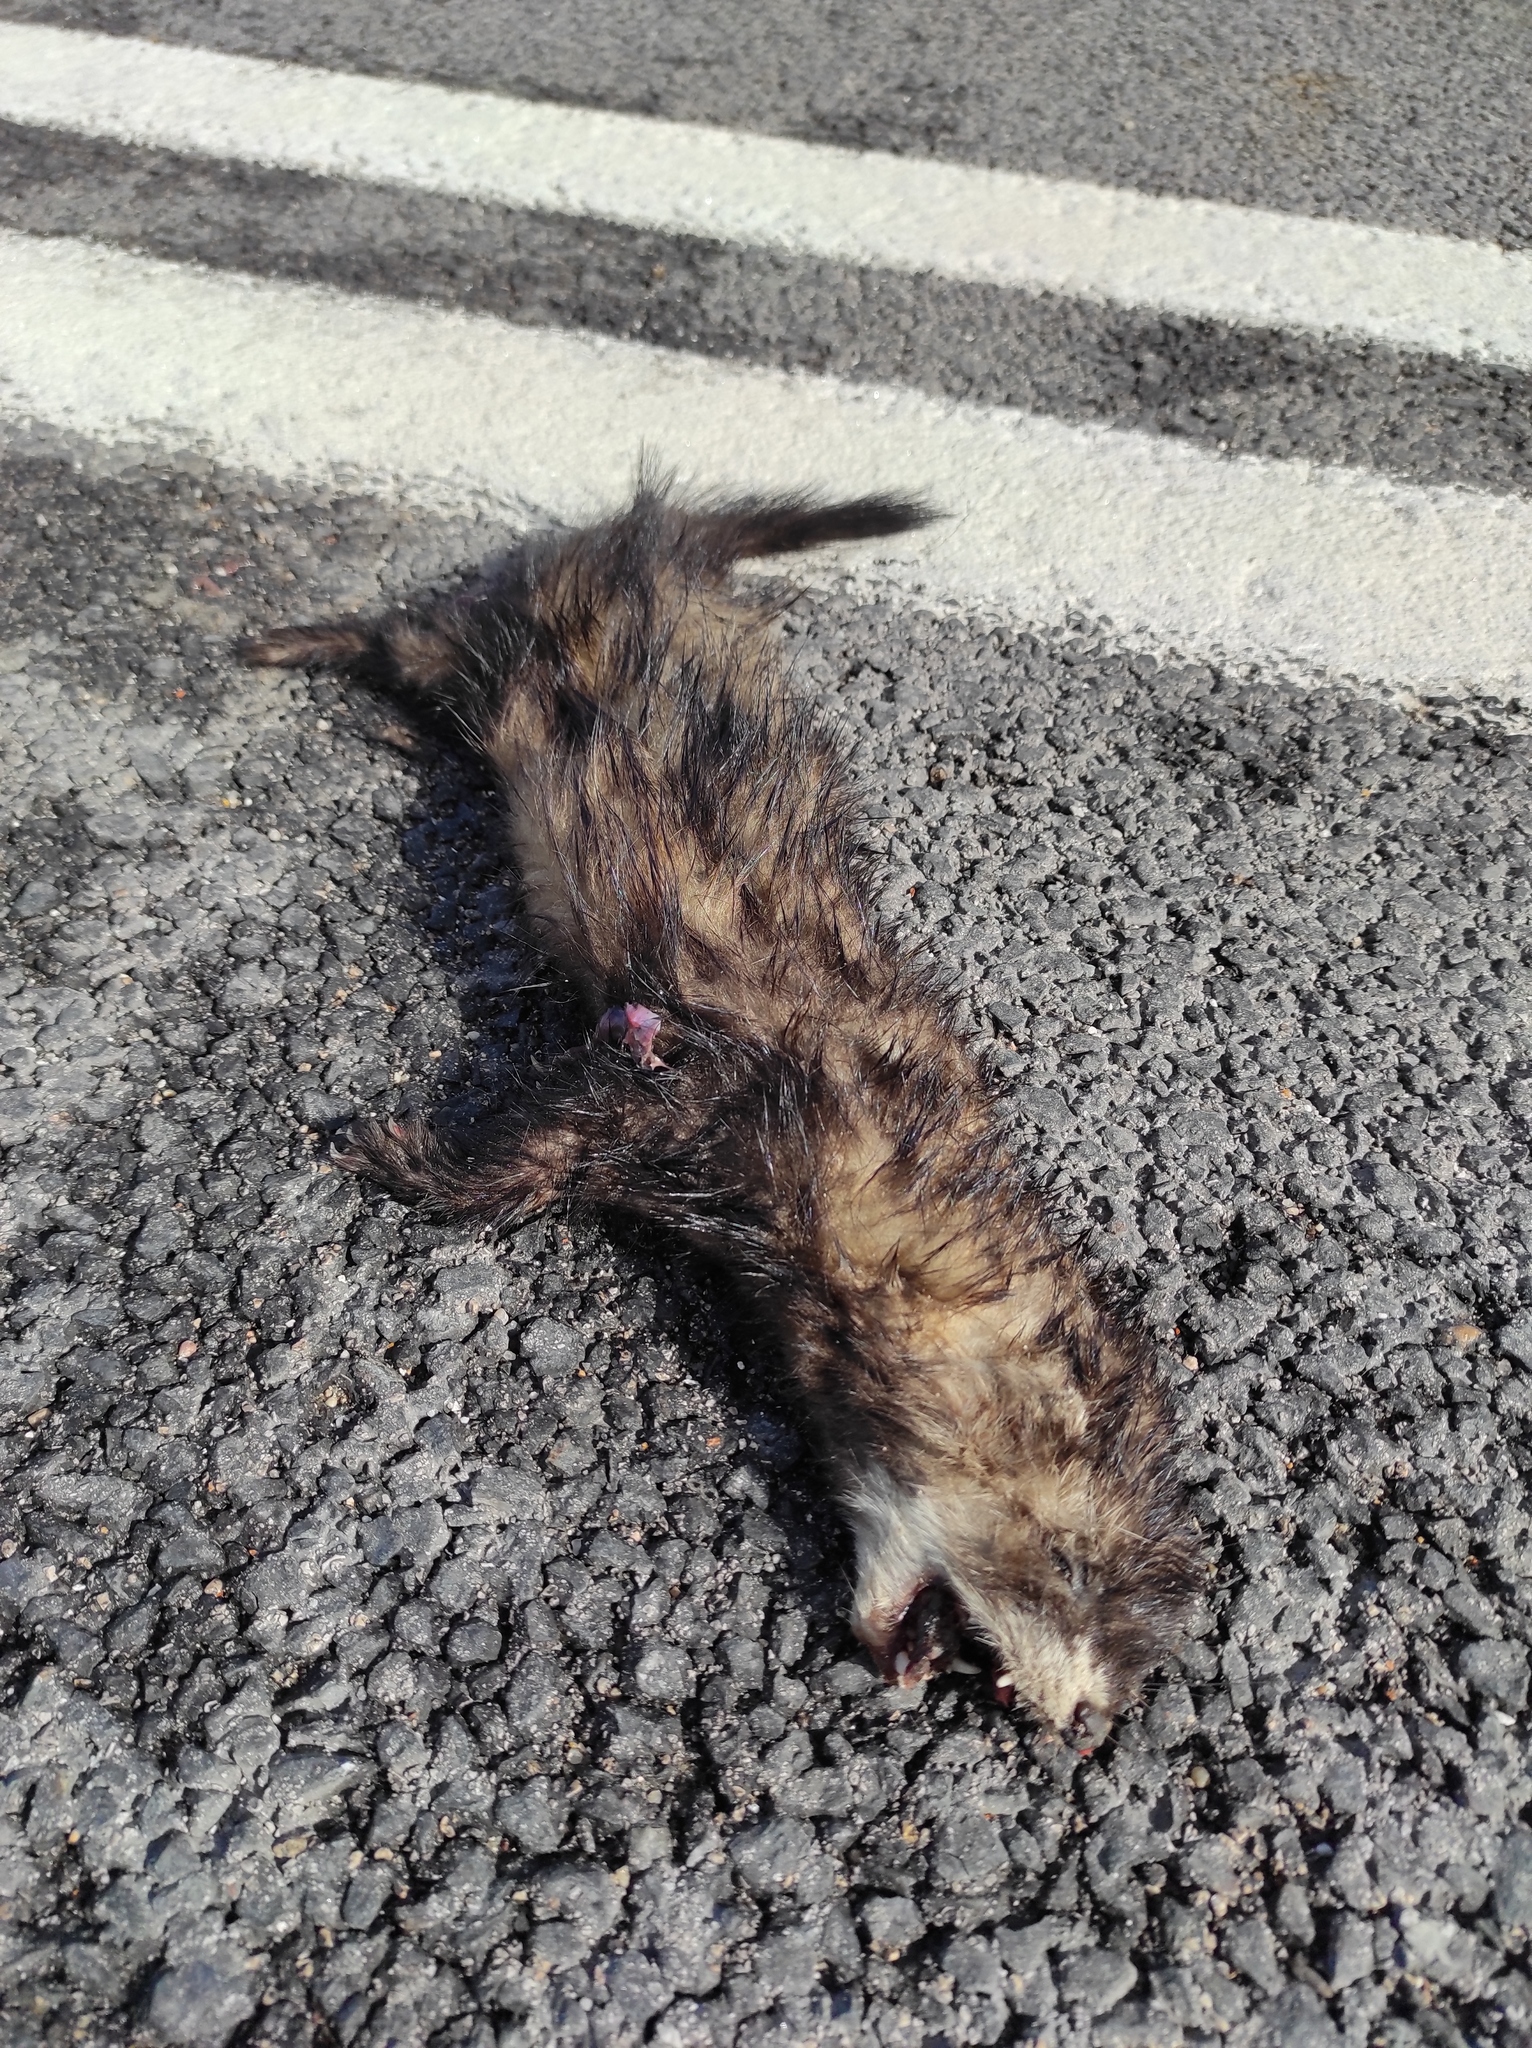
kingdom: Animalia
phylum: Chordata
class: Mammalia
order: Carnivora
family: Mustelidae
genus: Mustela
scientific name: Mustela putorius
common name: European polecat
